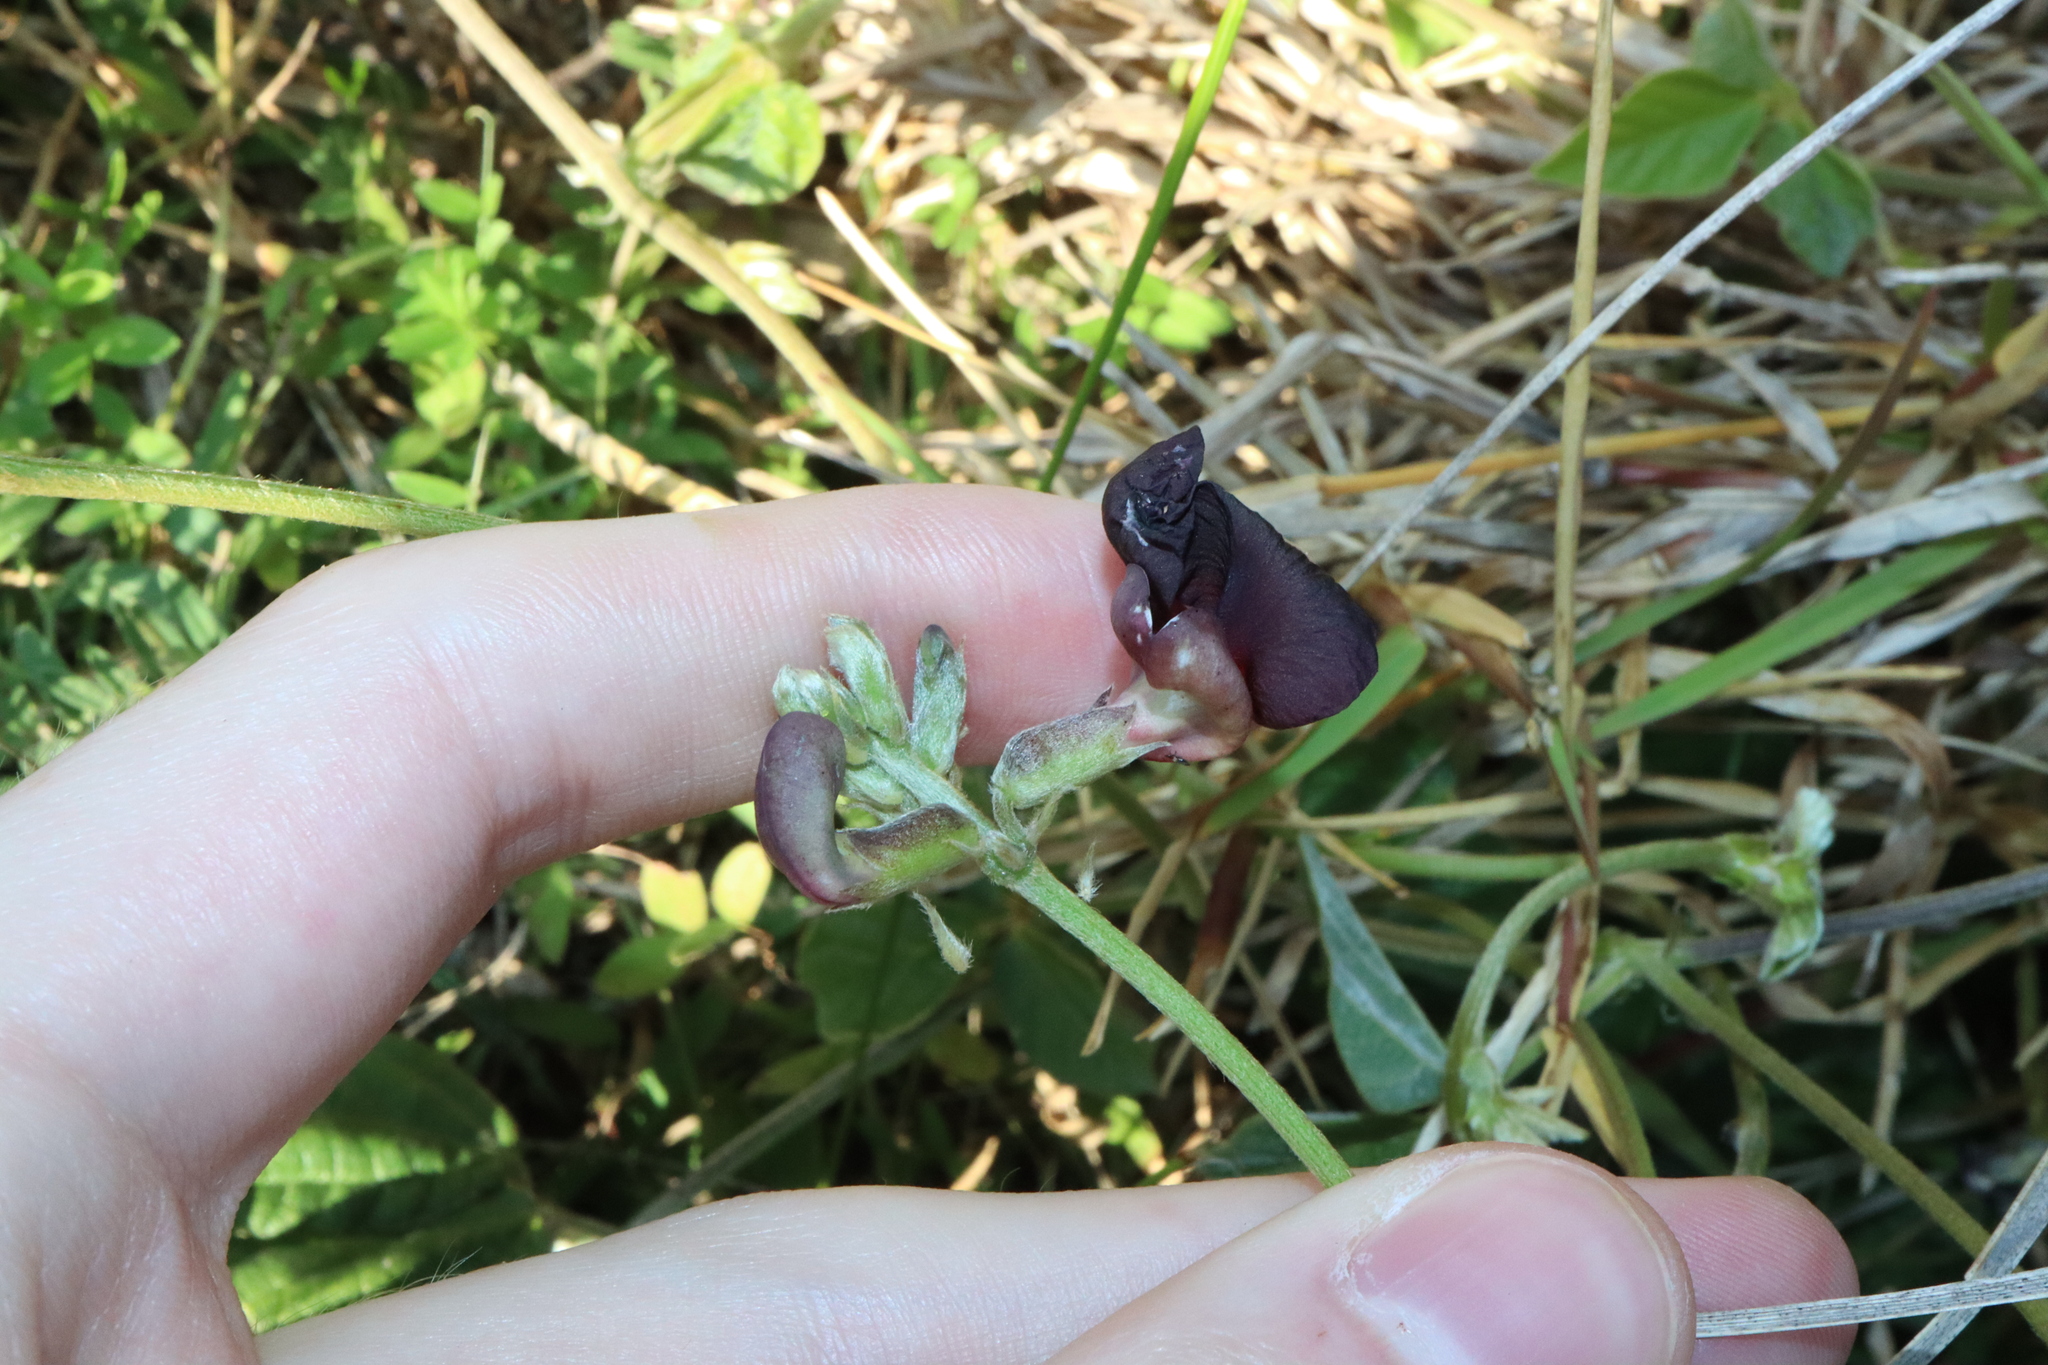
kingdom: Plantae
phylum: Tracheophyta
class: Magnoliopsida
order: Fabales
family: Fabaceae
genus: Macroptilium
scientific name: Macroptilium atropurpureum
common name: Purple bushbean
